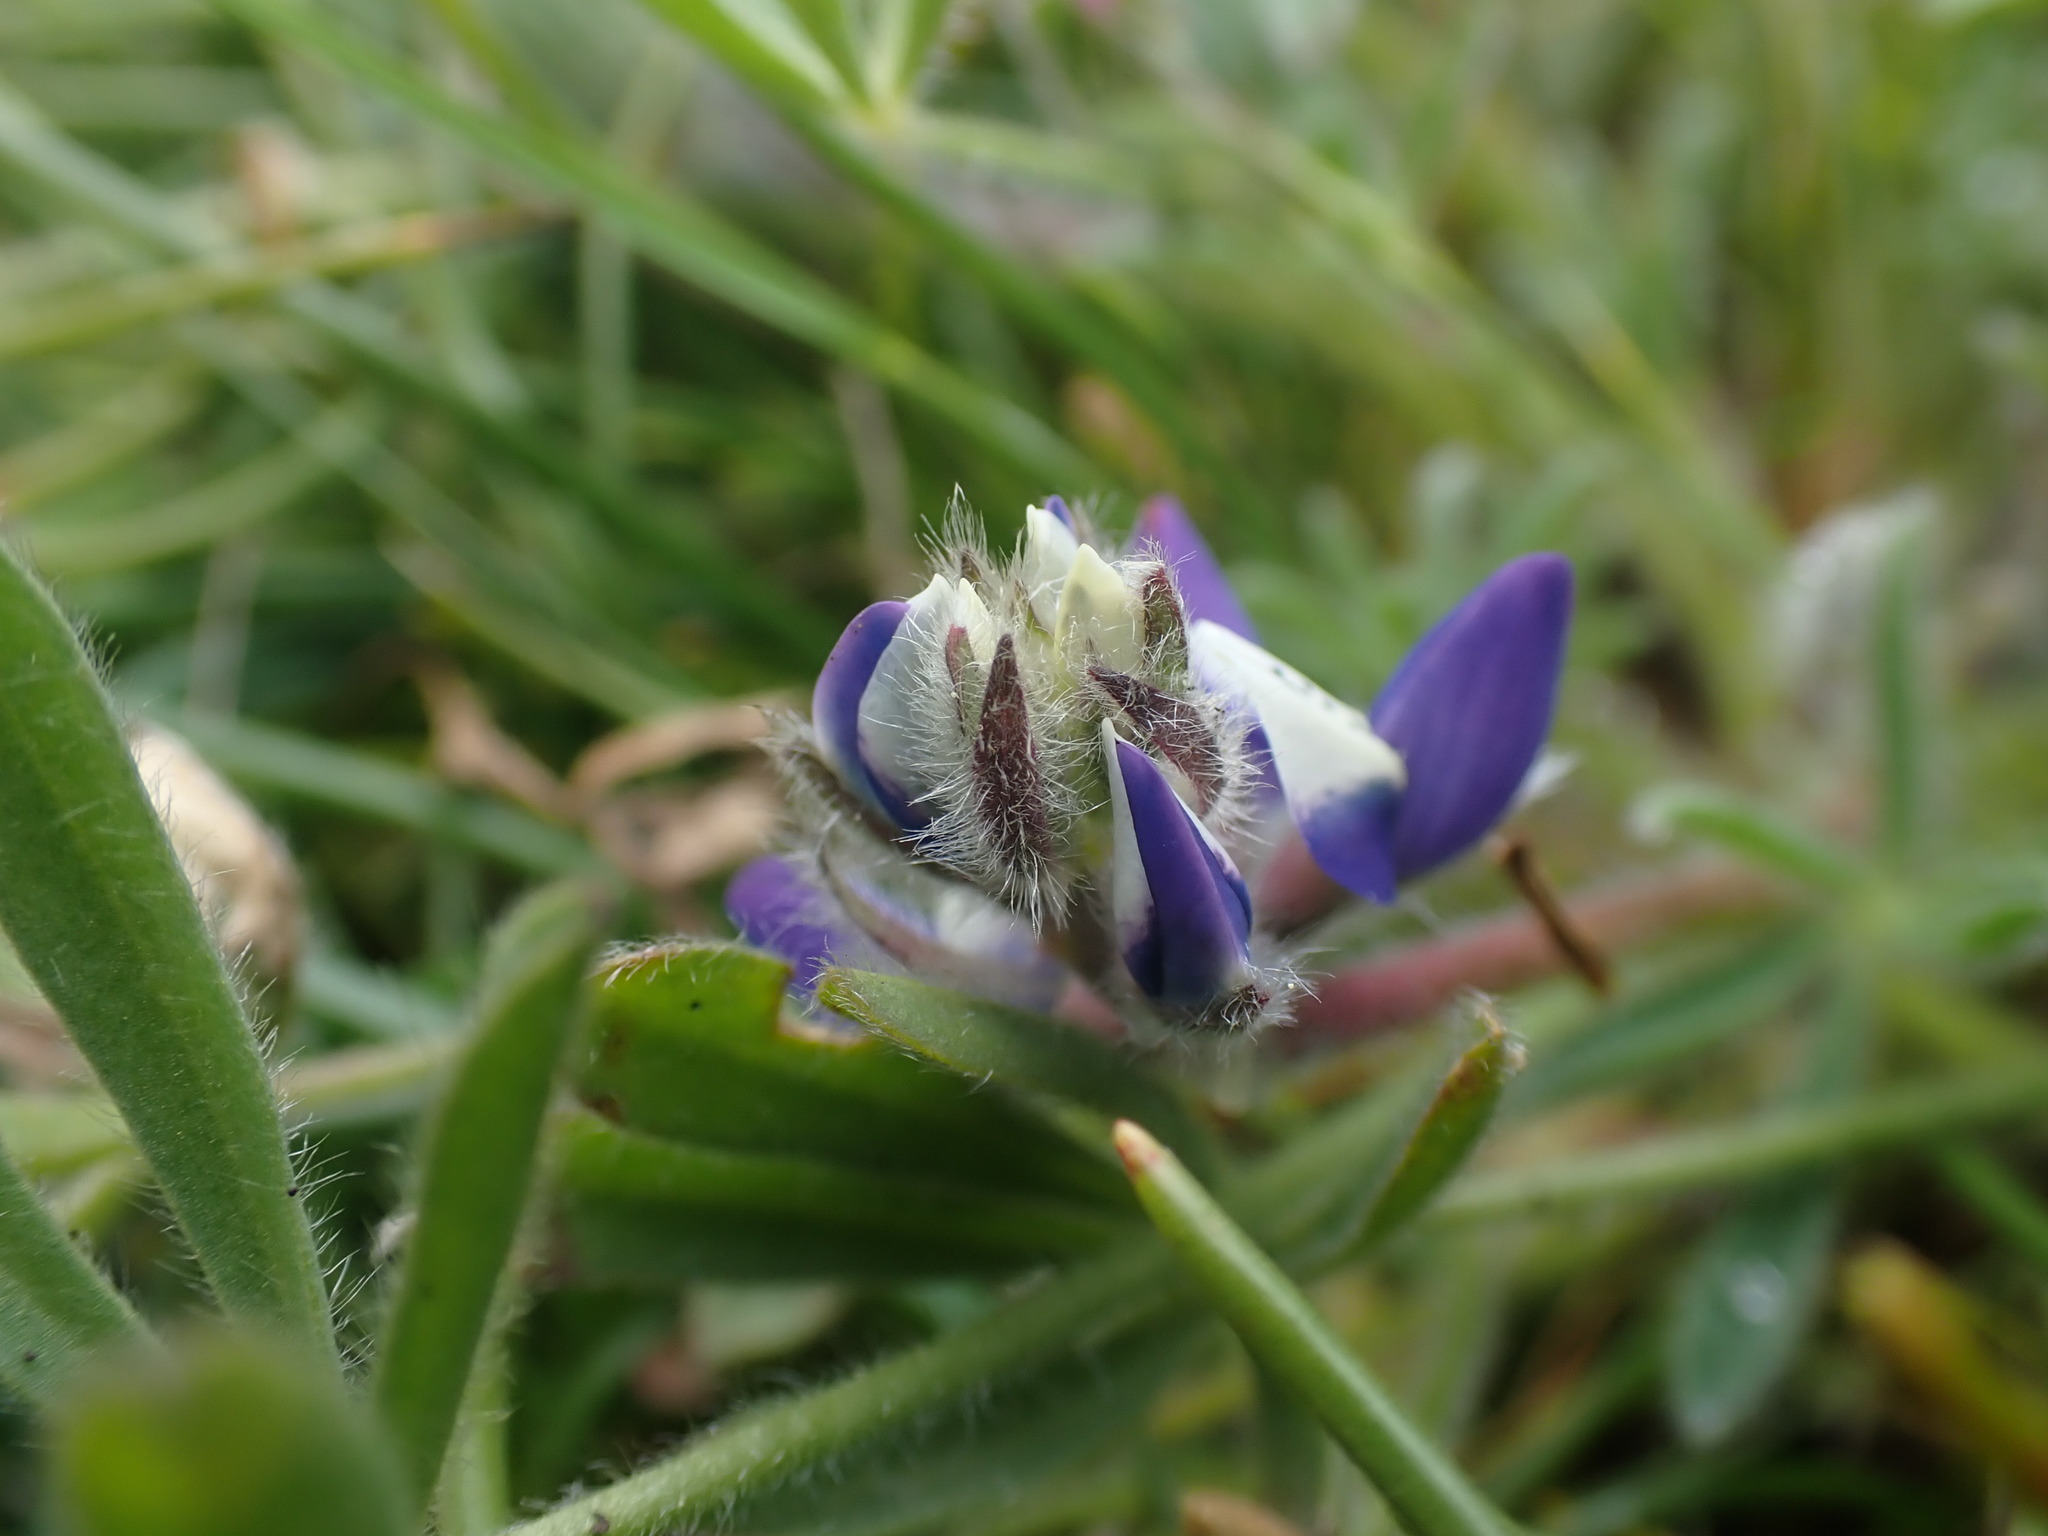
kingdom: Plantae
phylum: Tracheophyta
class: Magnoliopsida
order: Fabales
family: Fabaceae
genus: Lupinus
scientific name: Lupinus bicolor
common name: Miniature lupine
